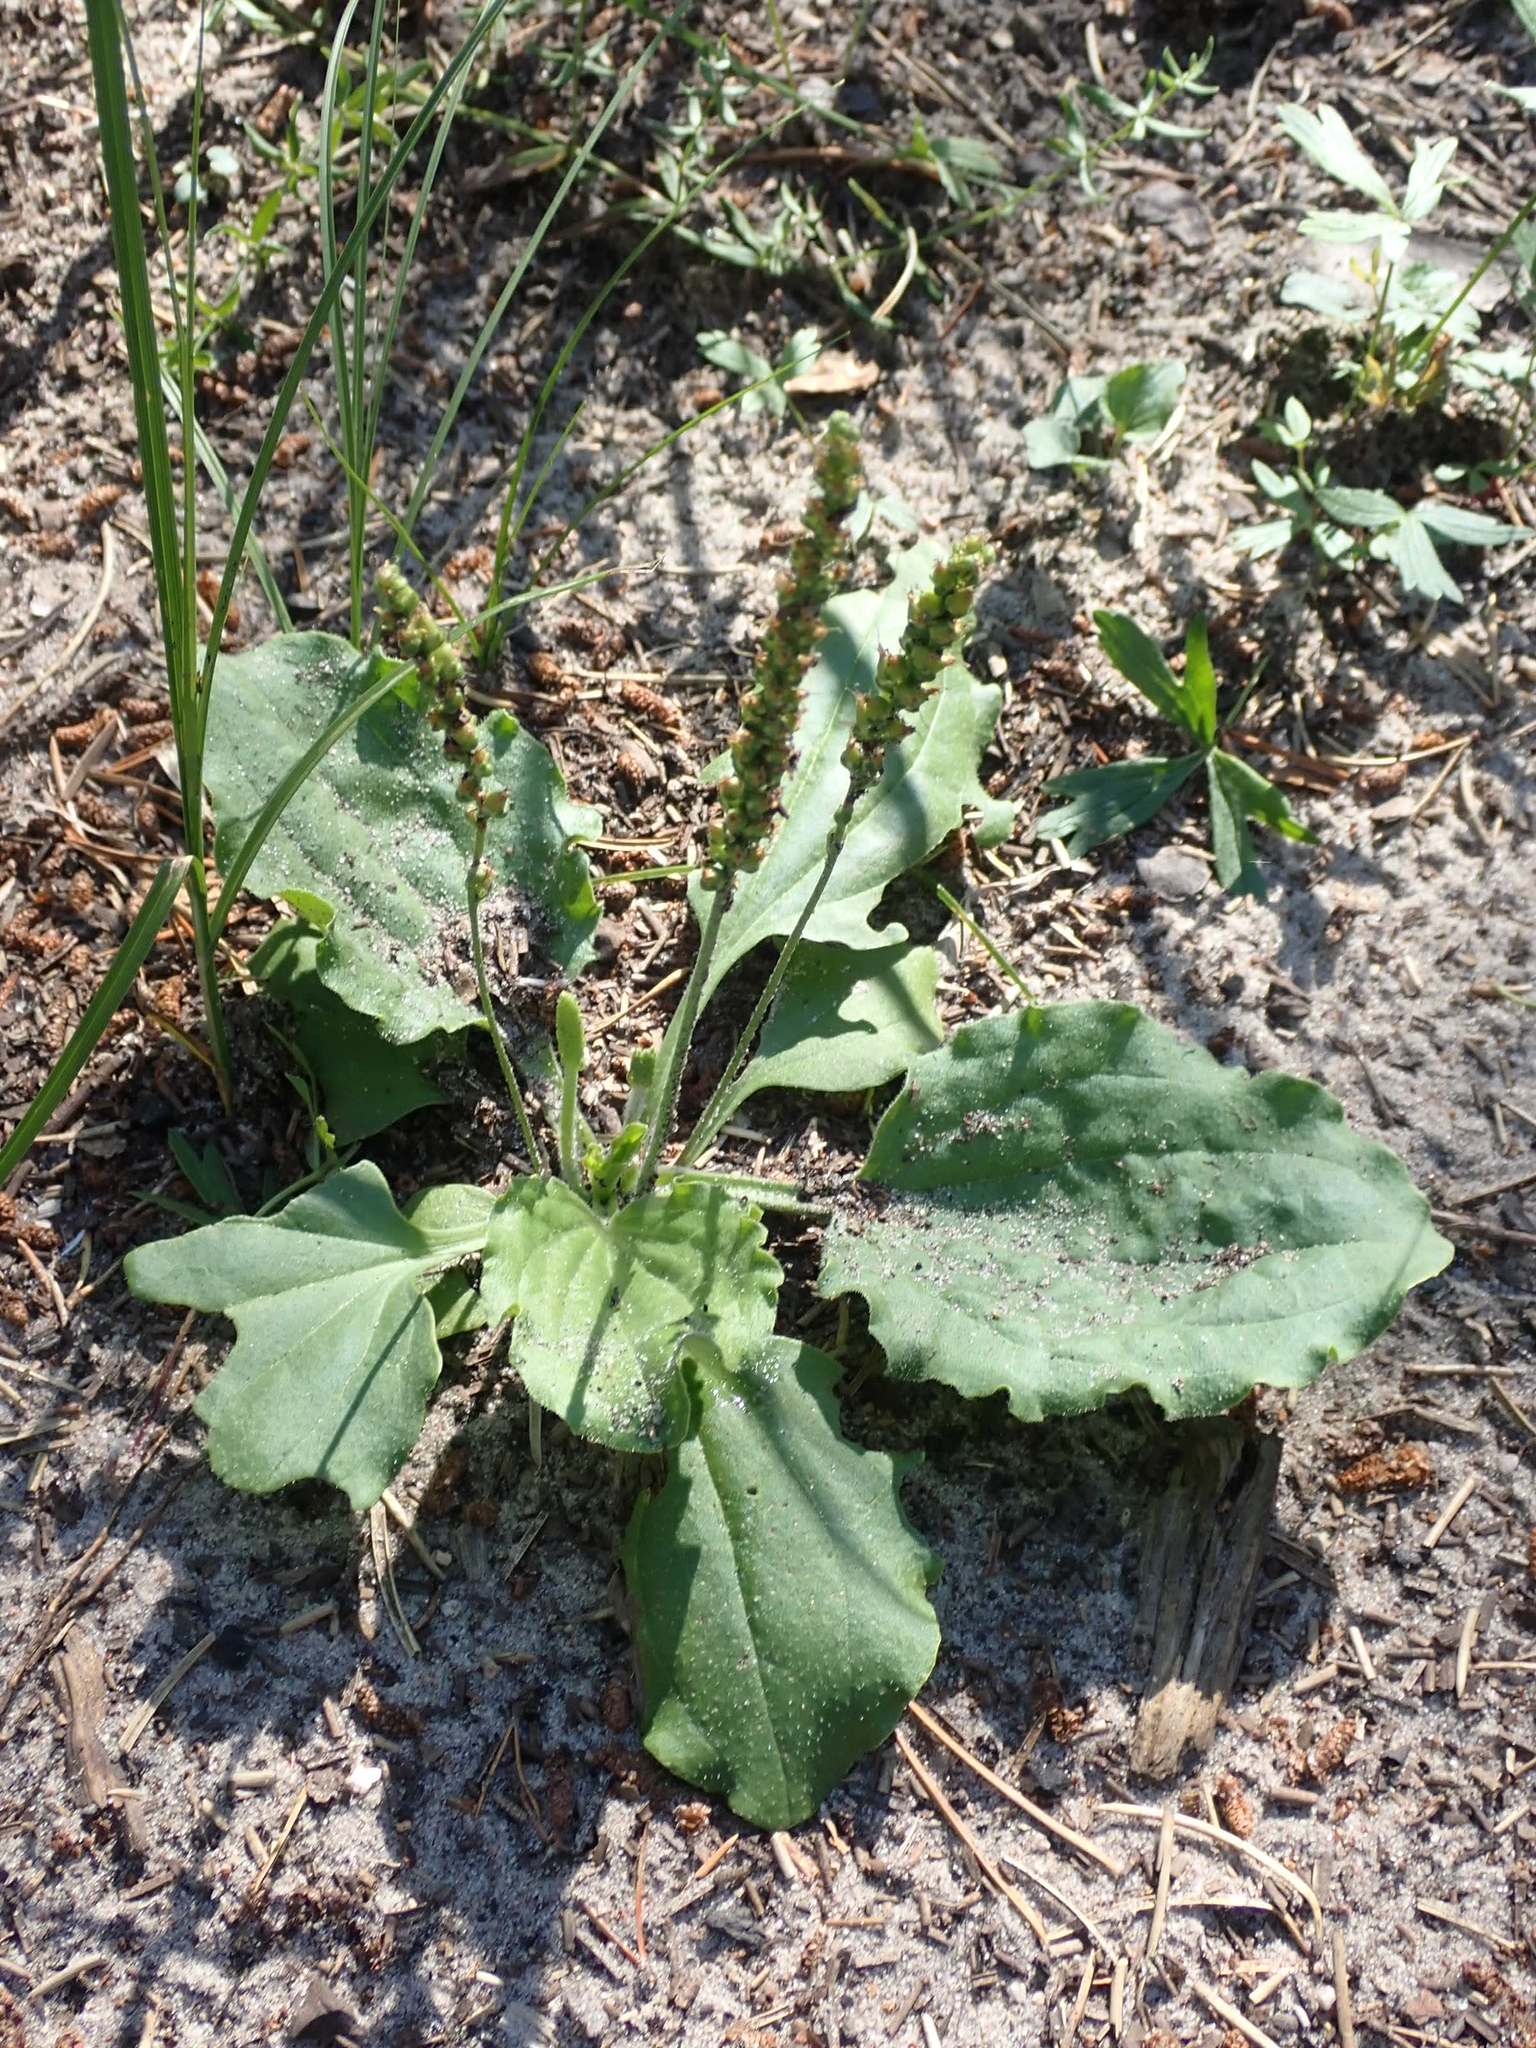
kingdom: Plantae
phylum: Tracheophyta
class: Magnoliopsida
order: Lamiales
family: Plantaginaceae
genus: Plantago
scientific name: Plantago major
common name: Common plantain
